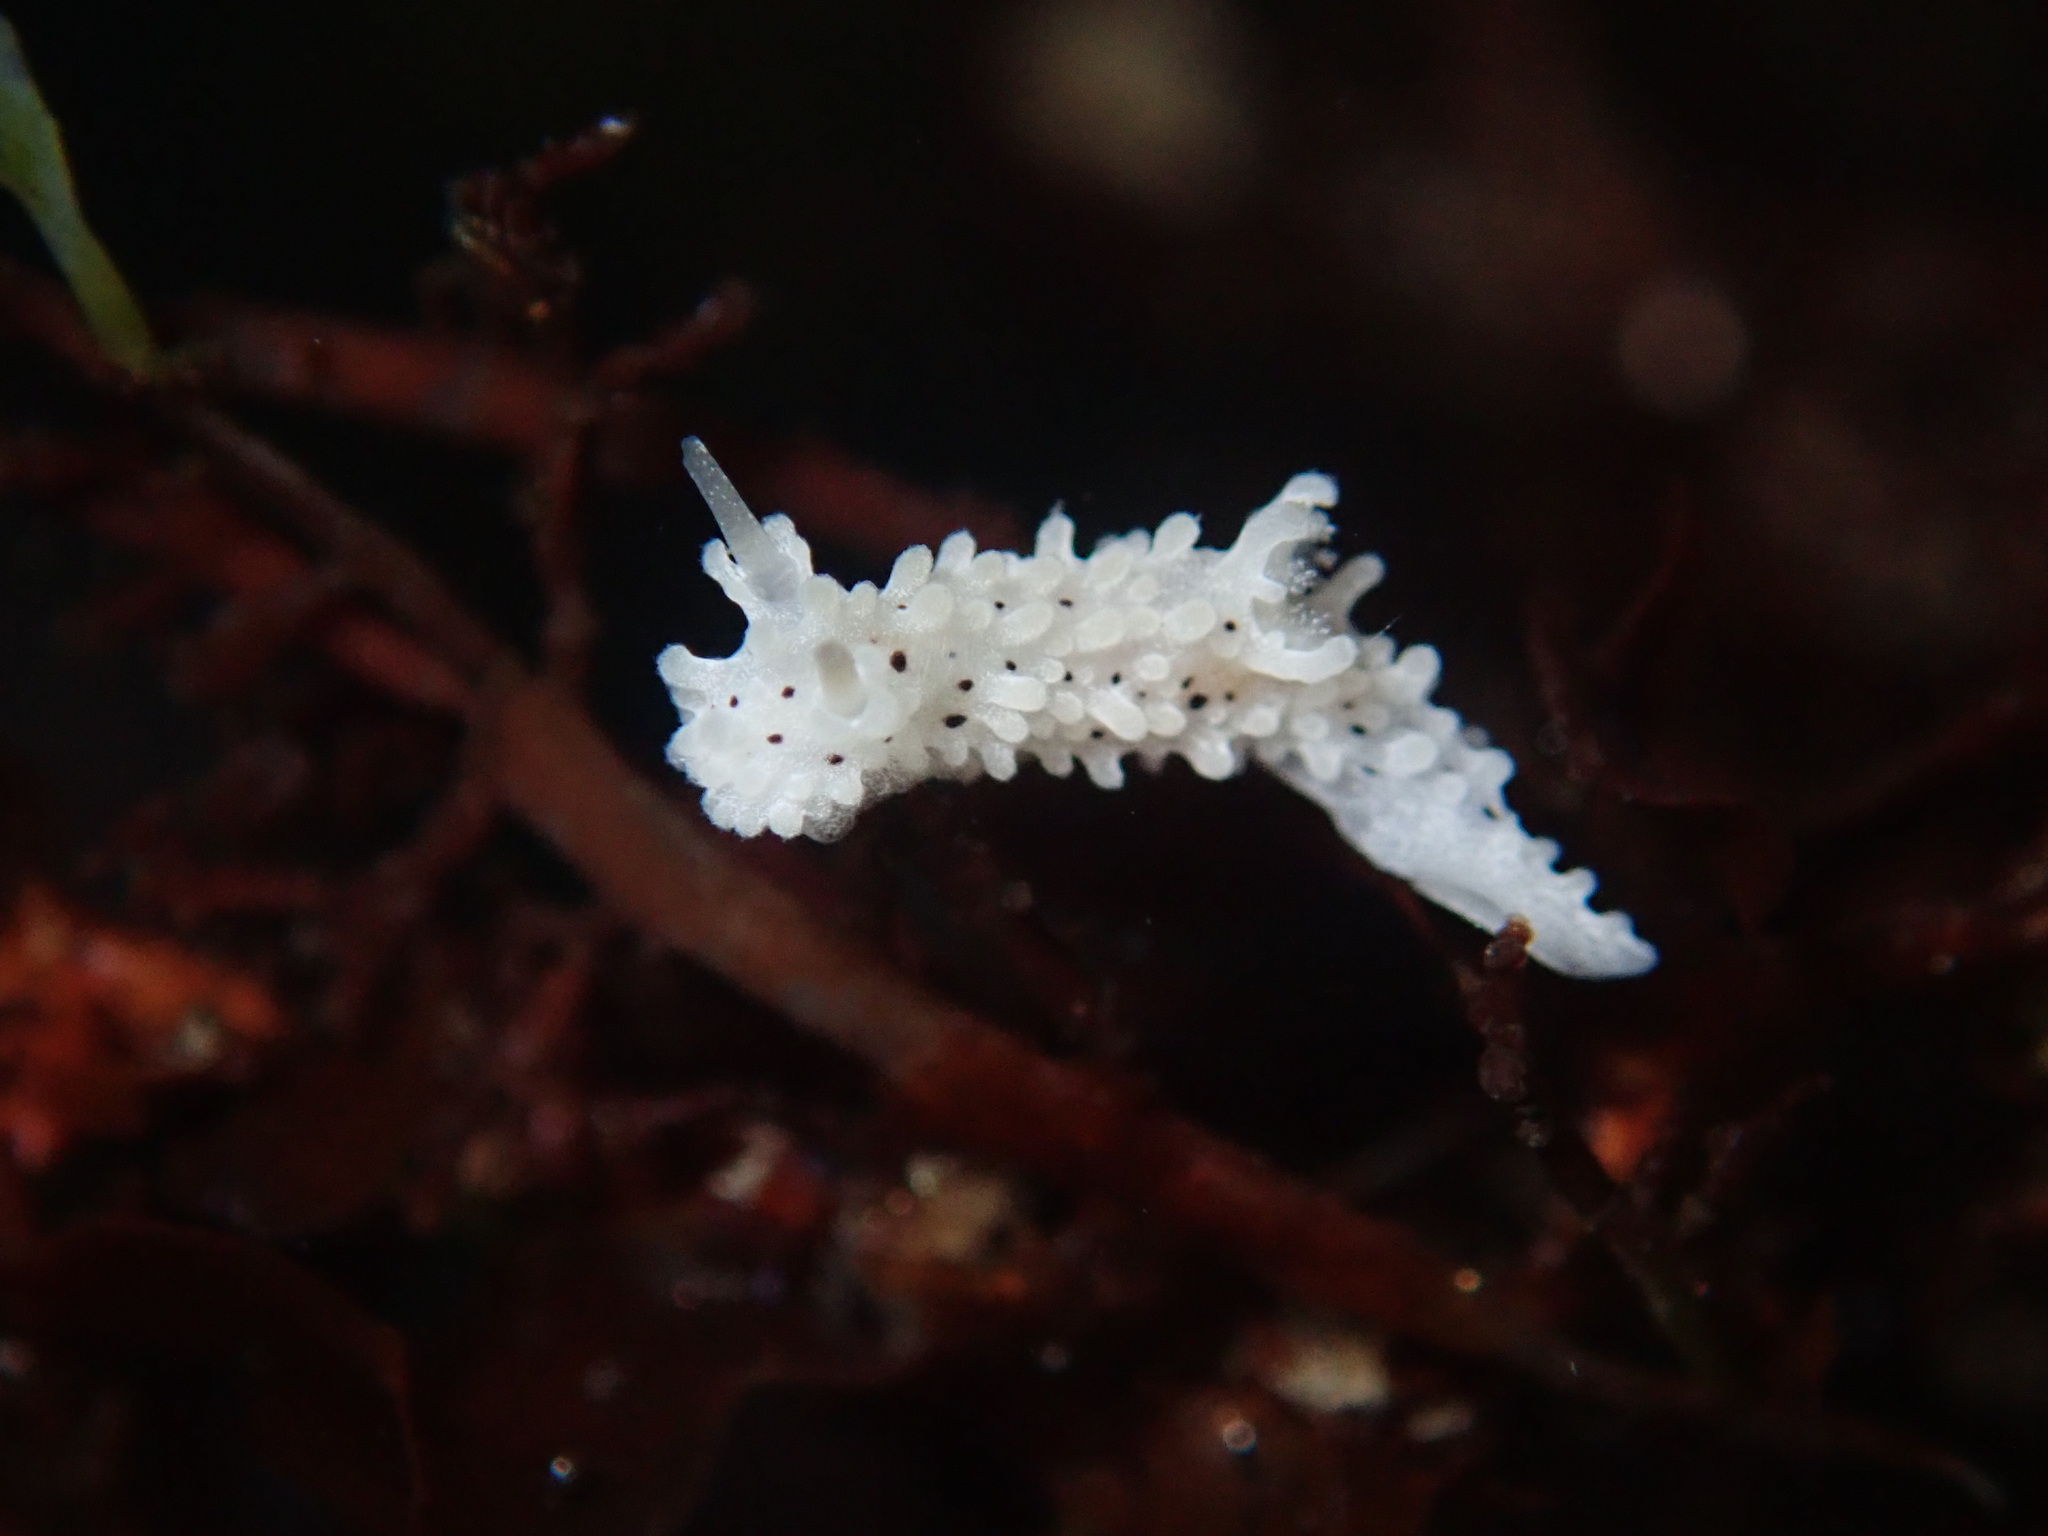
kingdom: Animalia
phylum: Mollusca
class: Gastropoda
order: Nudibranchia
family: Aegiridae
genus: Aegires
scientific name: Aegires albopunctatus
